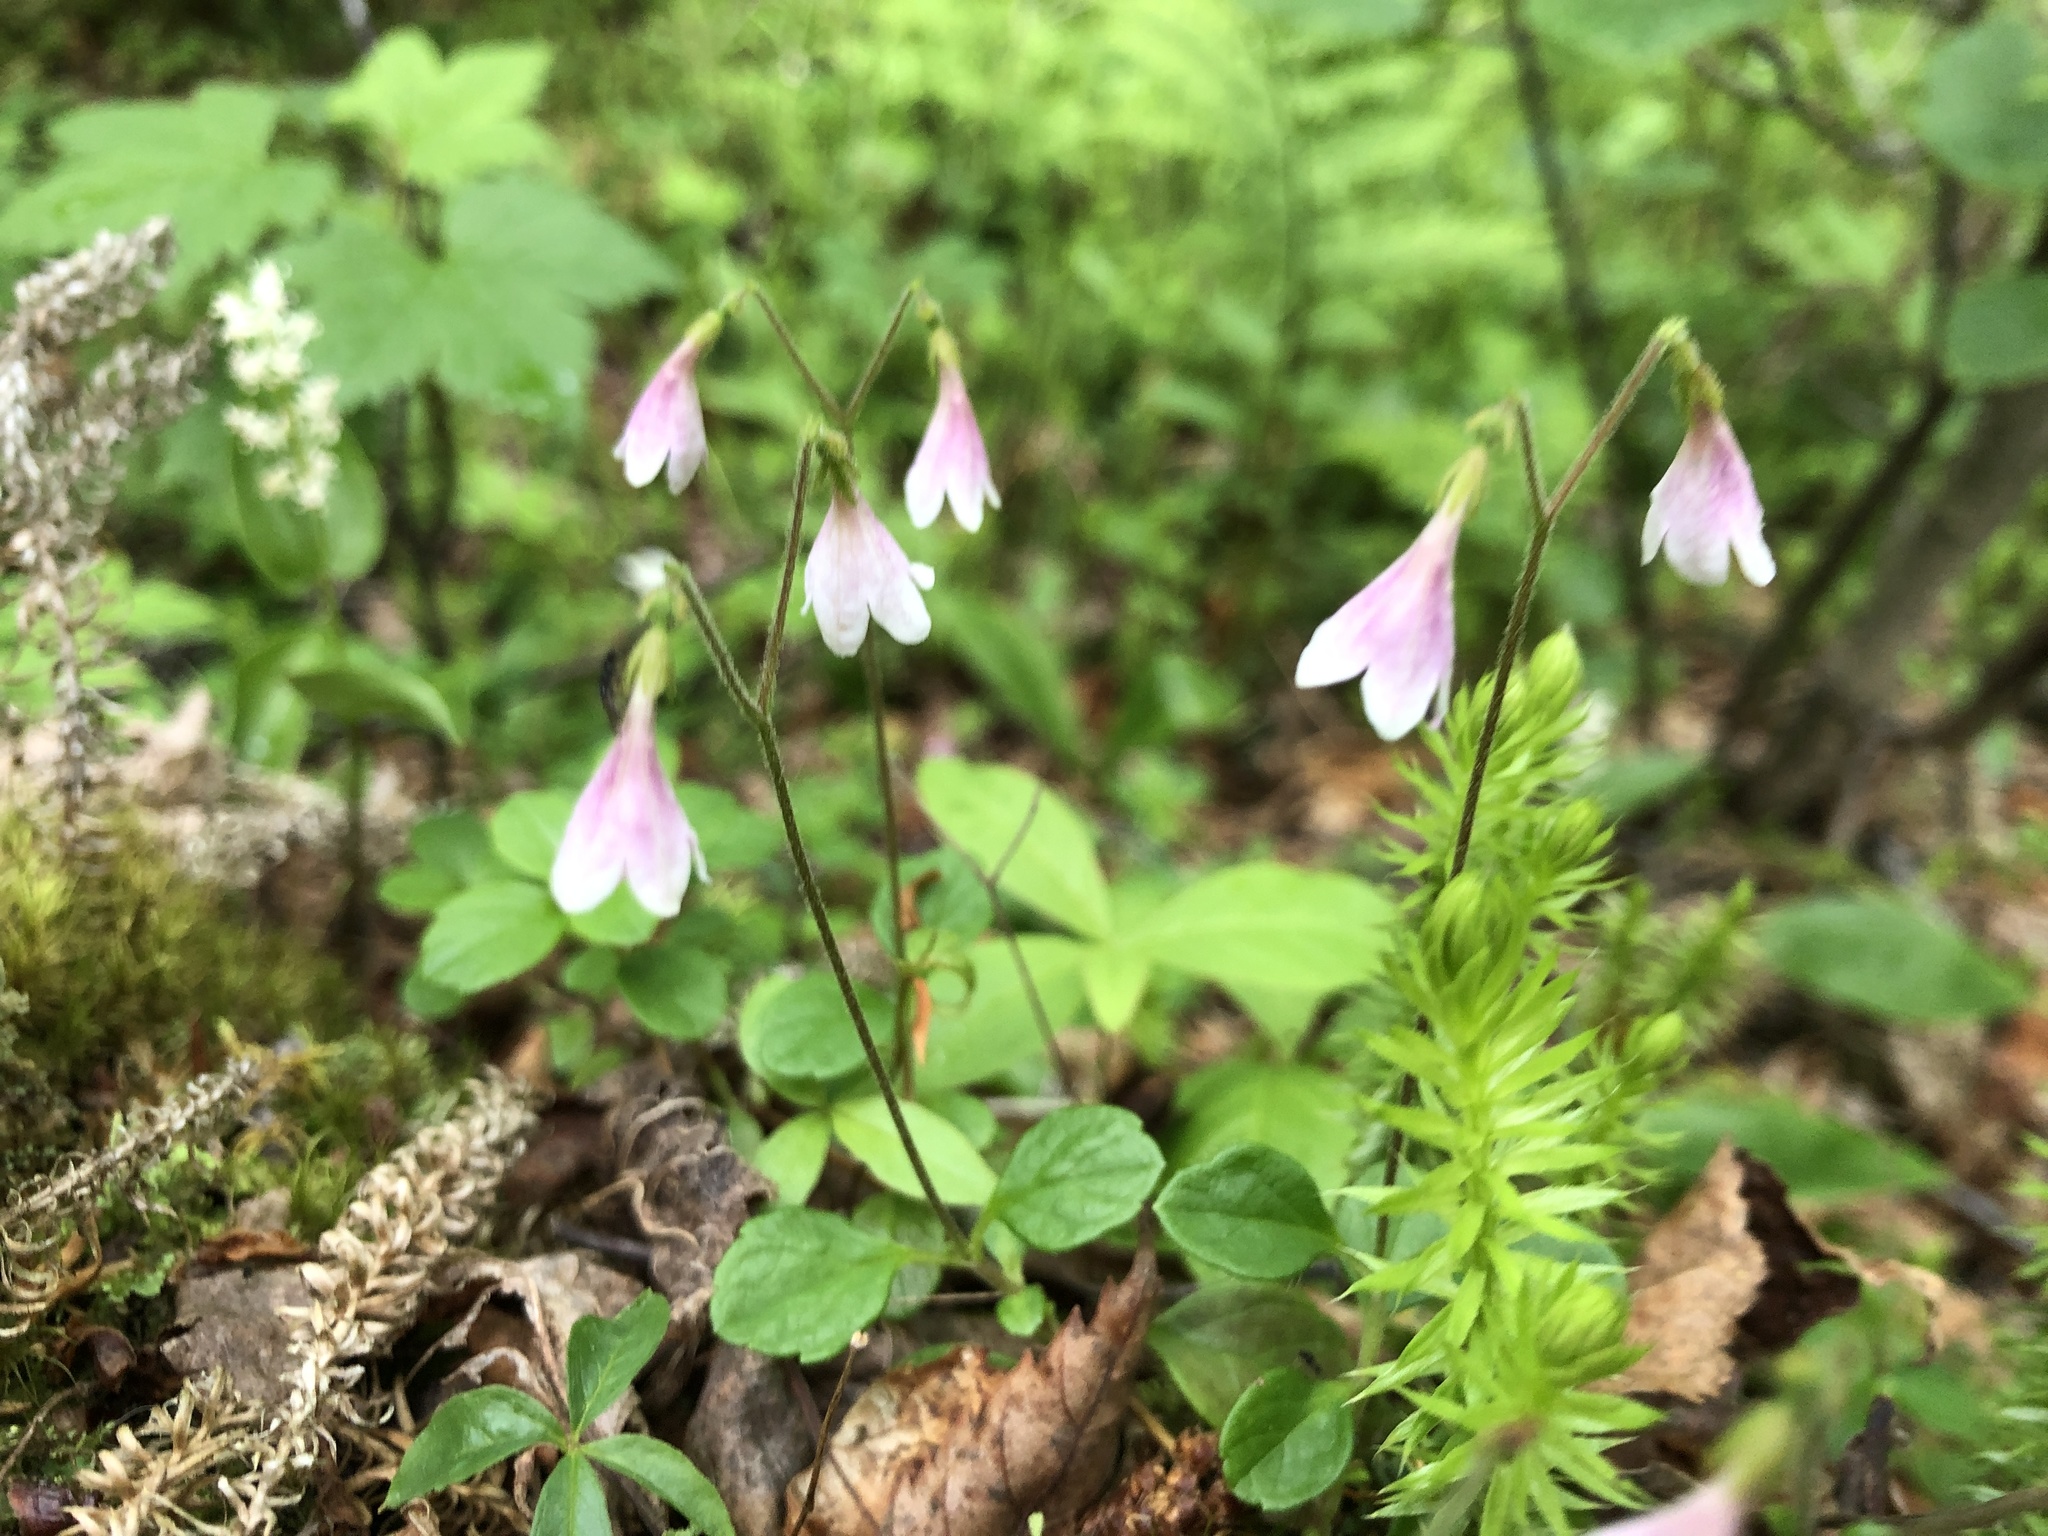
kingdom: Plantae
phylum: Tracheophyta
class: Magnoliopsida
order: Dipsacales
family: Caprifoliaceae
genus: Linnaea
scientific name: Linnaea borealis
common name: Twinflower
